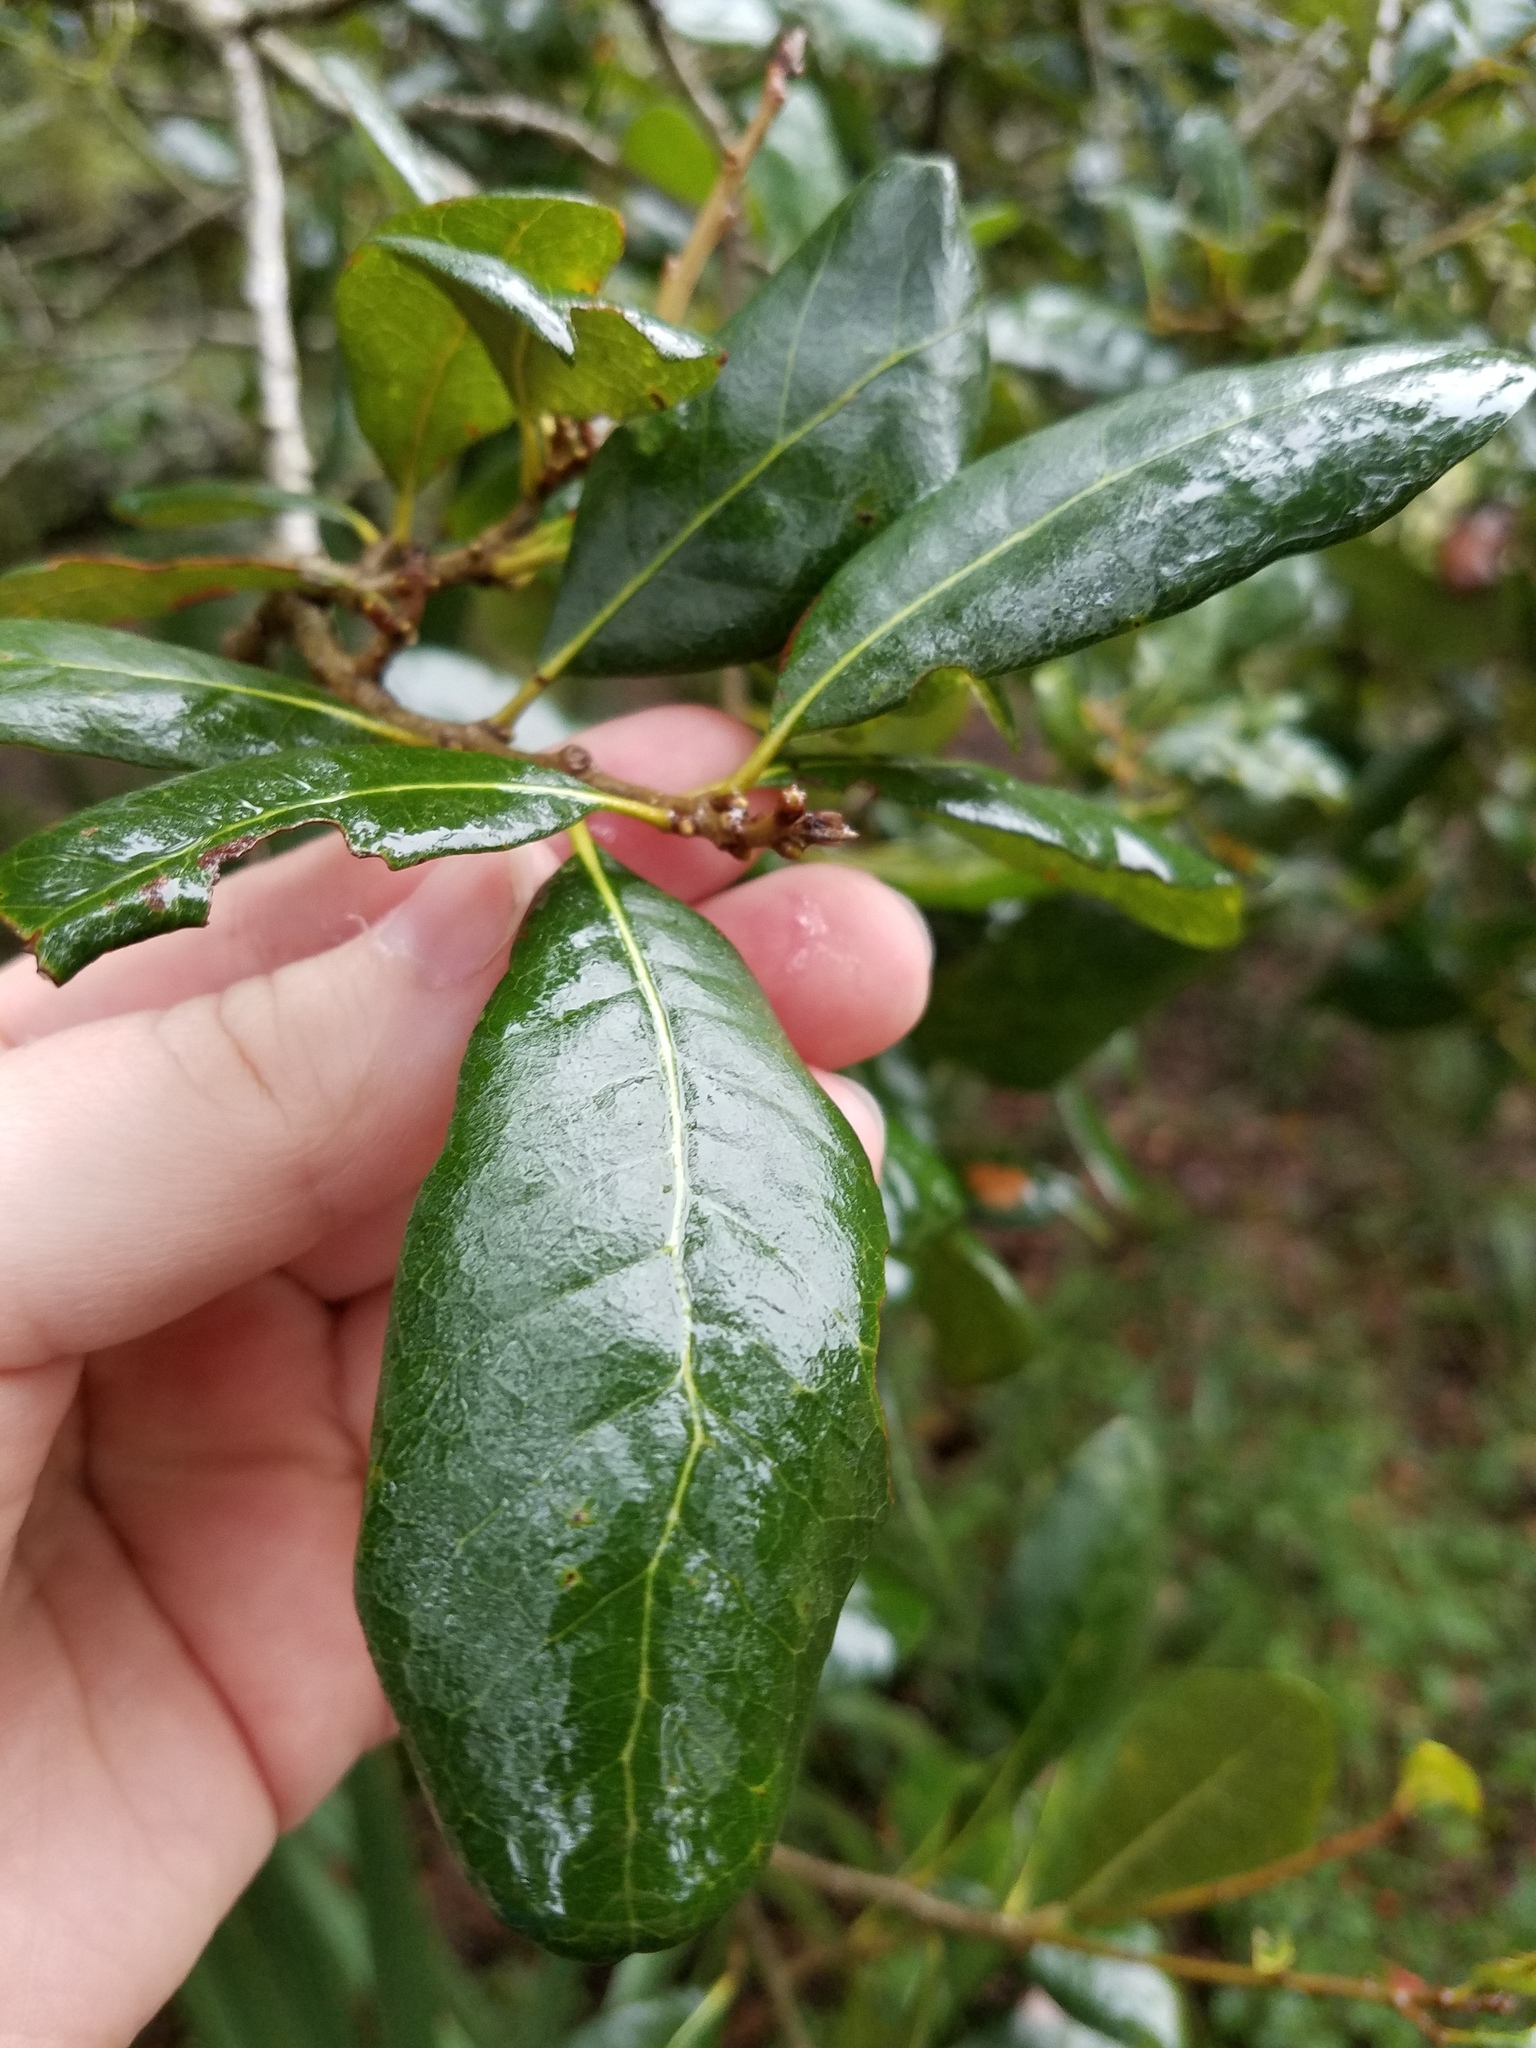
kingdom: Plantae
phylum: Tracheophyta
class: Magnoliopsida
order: Fagales
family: Fagaceae
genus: Quercus
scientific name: Quercus virginiana
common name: Southern live oak
